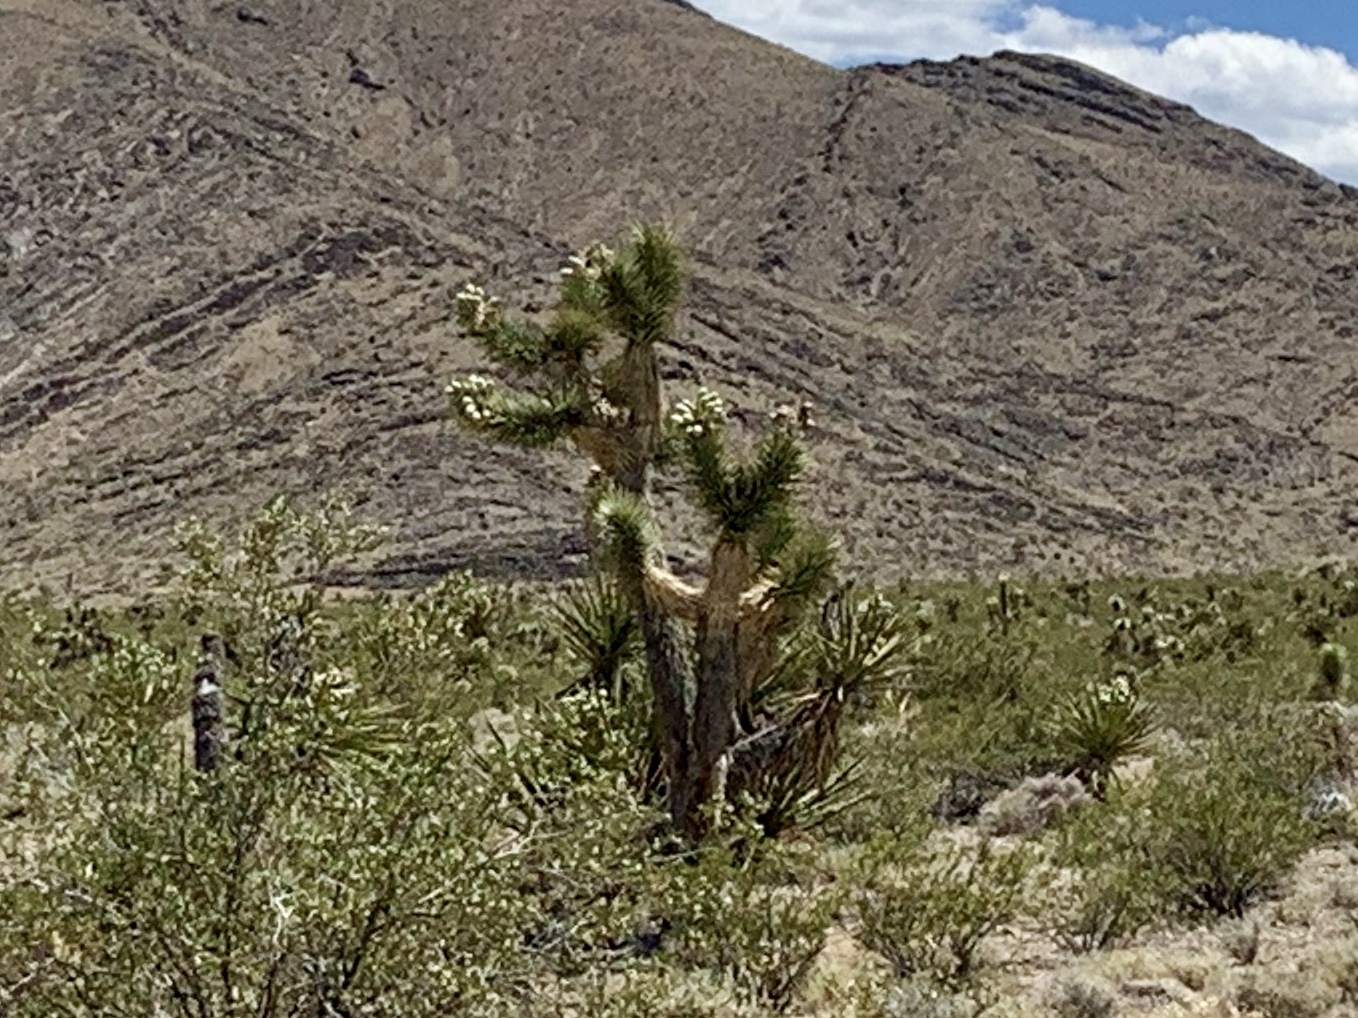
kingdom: Plantae
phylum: Tracheophyta
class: Liliopsida
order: Asparagales
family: Asparagaceae
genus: Yucca
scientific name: Yucca brevifolia
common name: Joshua tree
